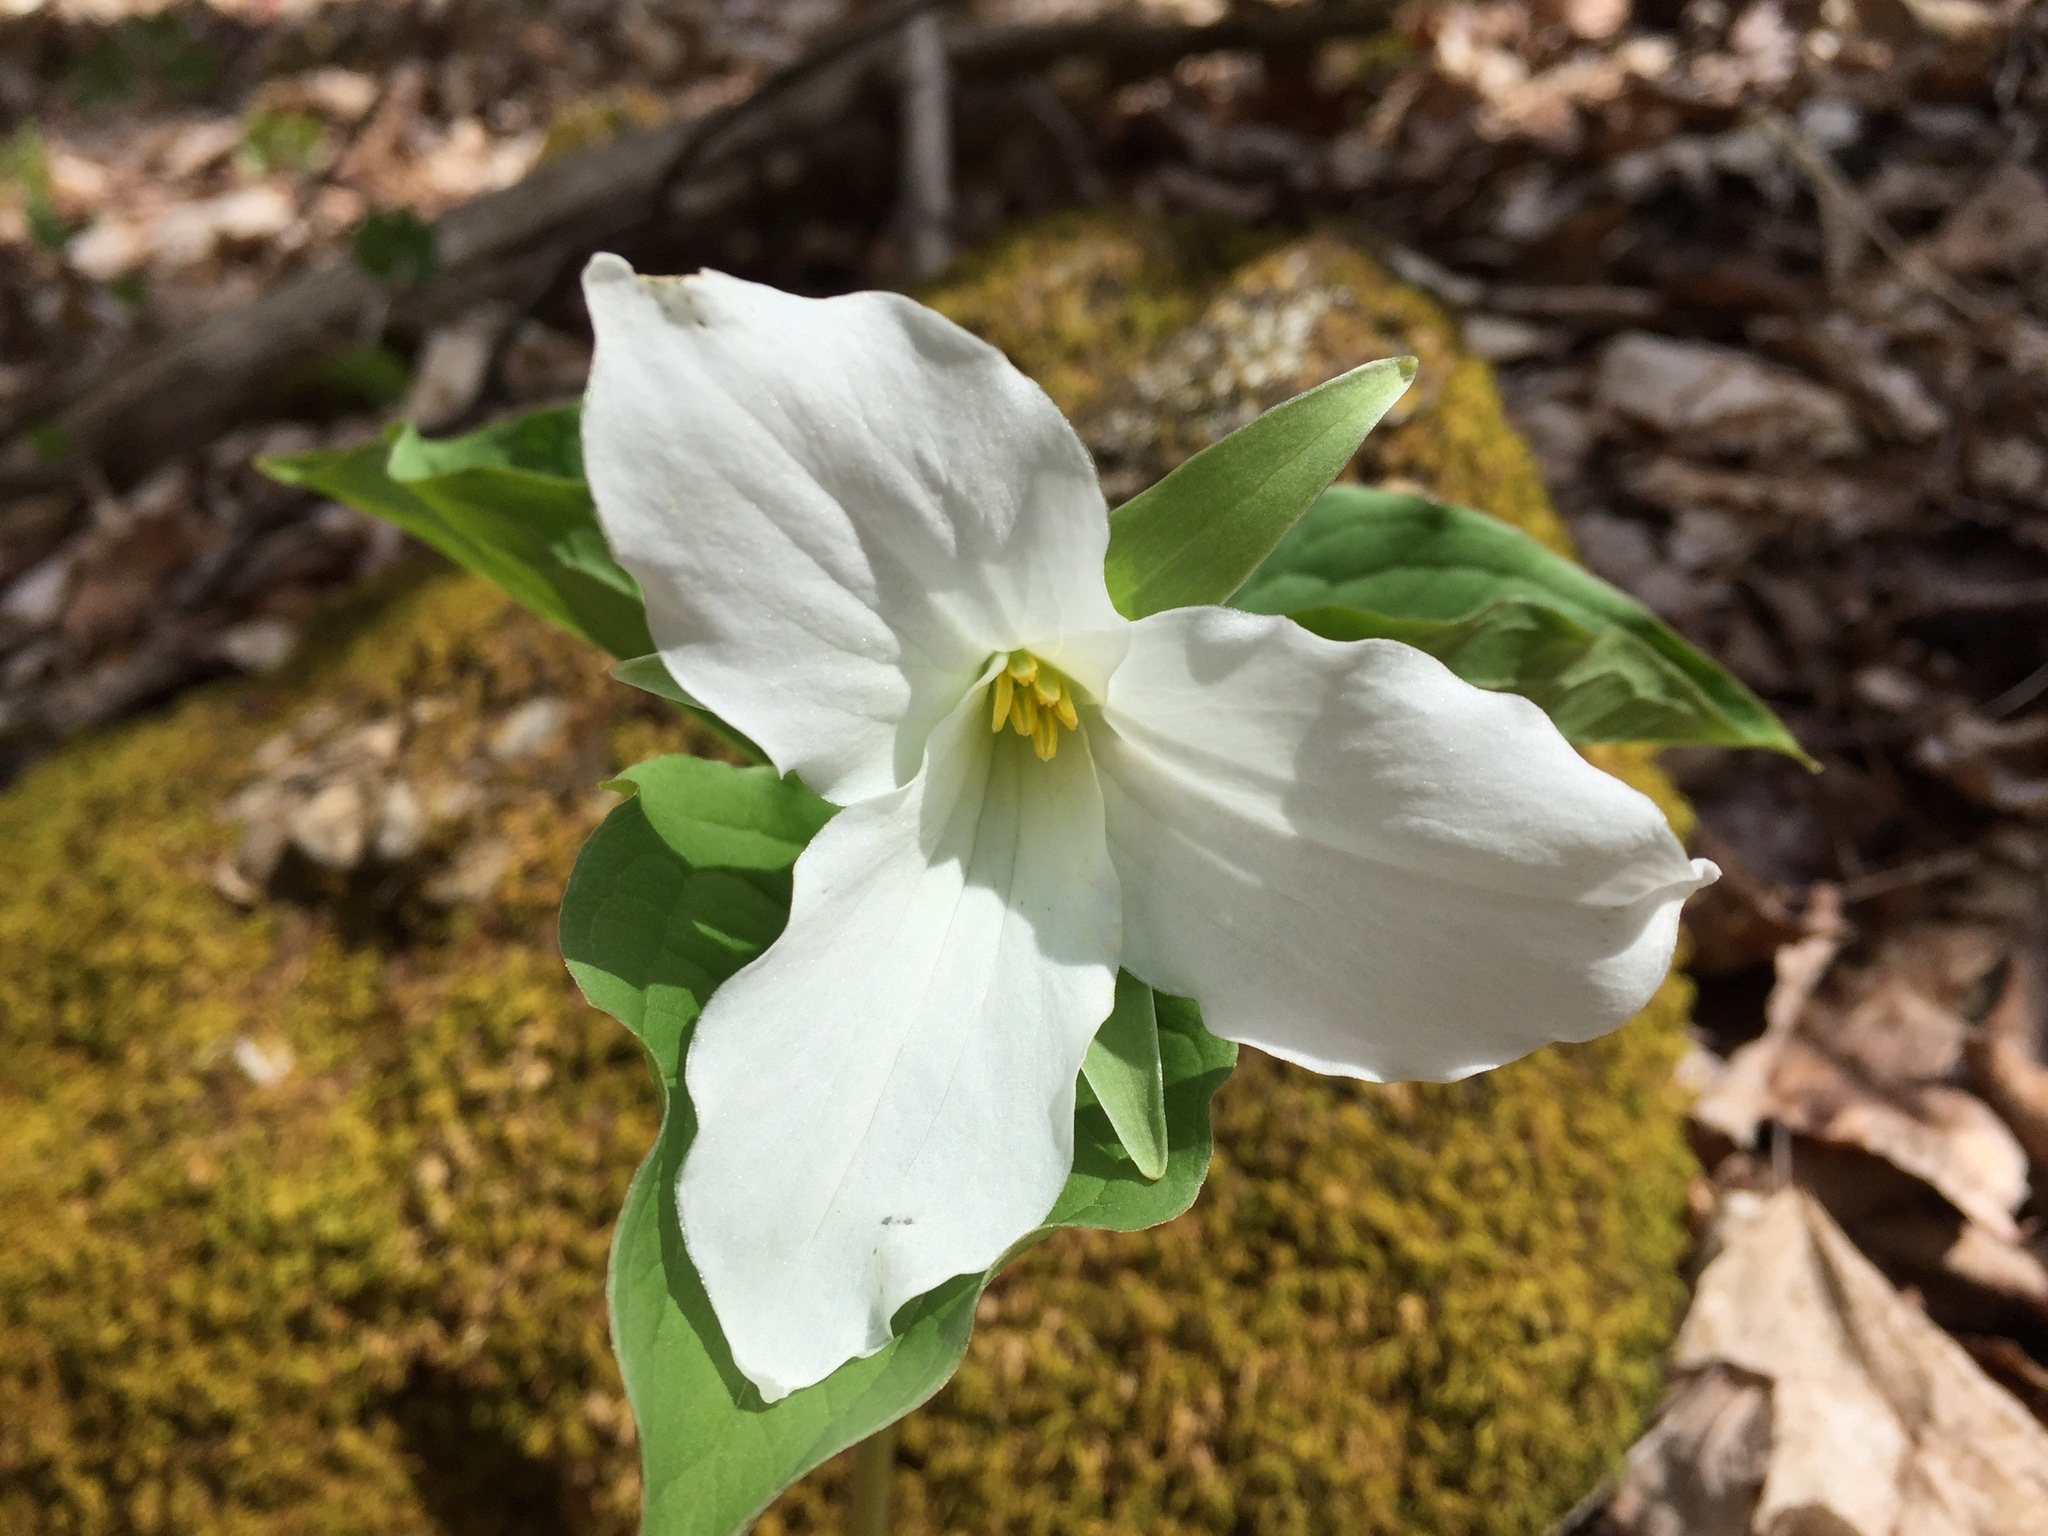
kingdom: Plantae
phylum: Tracheophyta
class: Liliopsida
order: Liliales
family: Melanthiaceae
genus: Trillium
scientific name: Trillium grandiflorum
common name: Great white trillium
